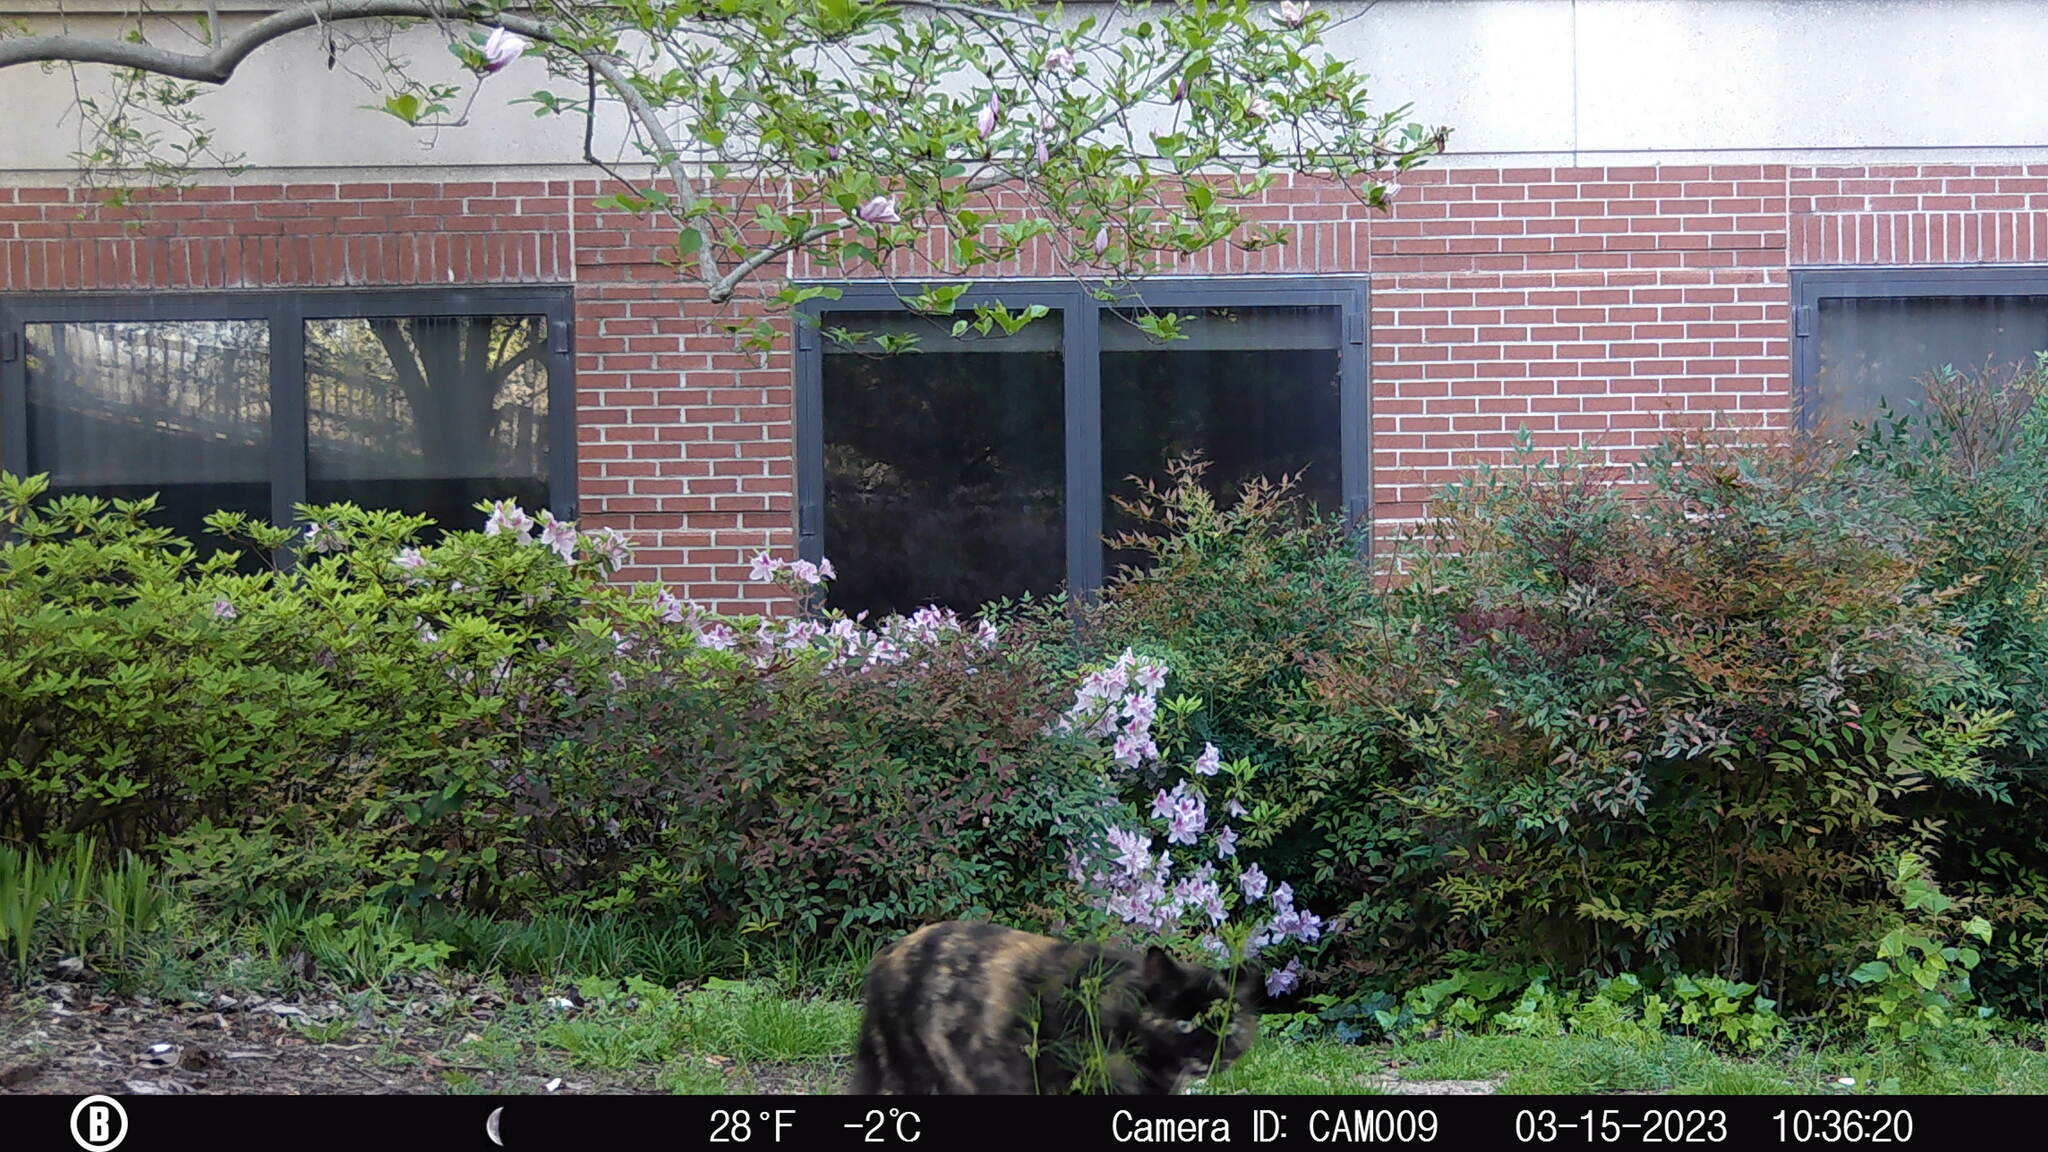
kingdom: Animalia
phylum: Chordata
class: Mammalia
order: Carnivora
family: Felidae
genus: Felis
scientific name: Felis catus
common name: Domestic cat
